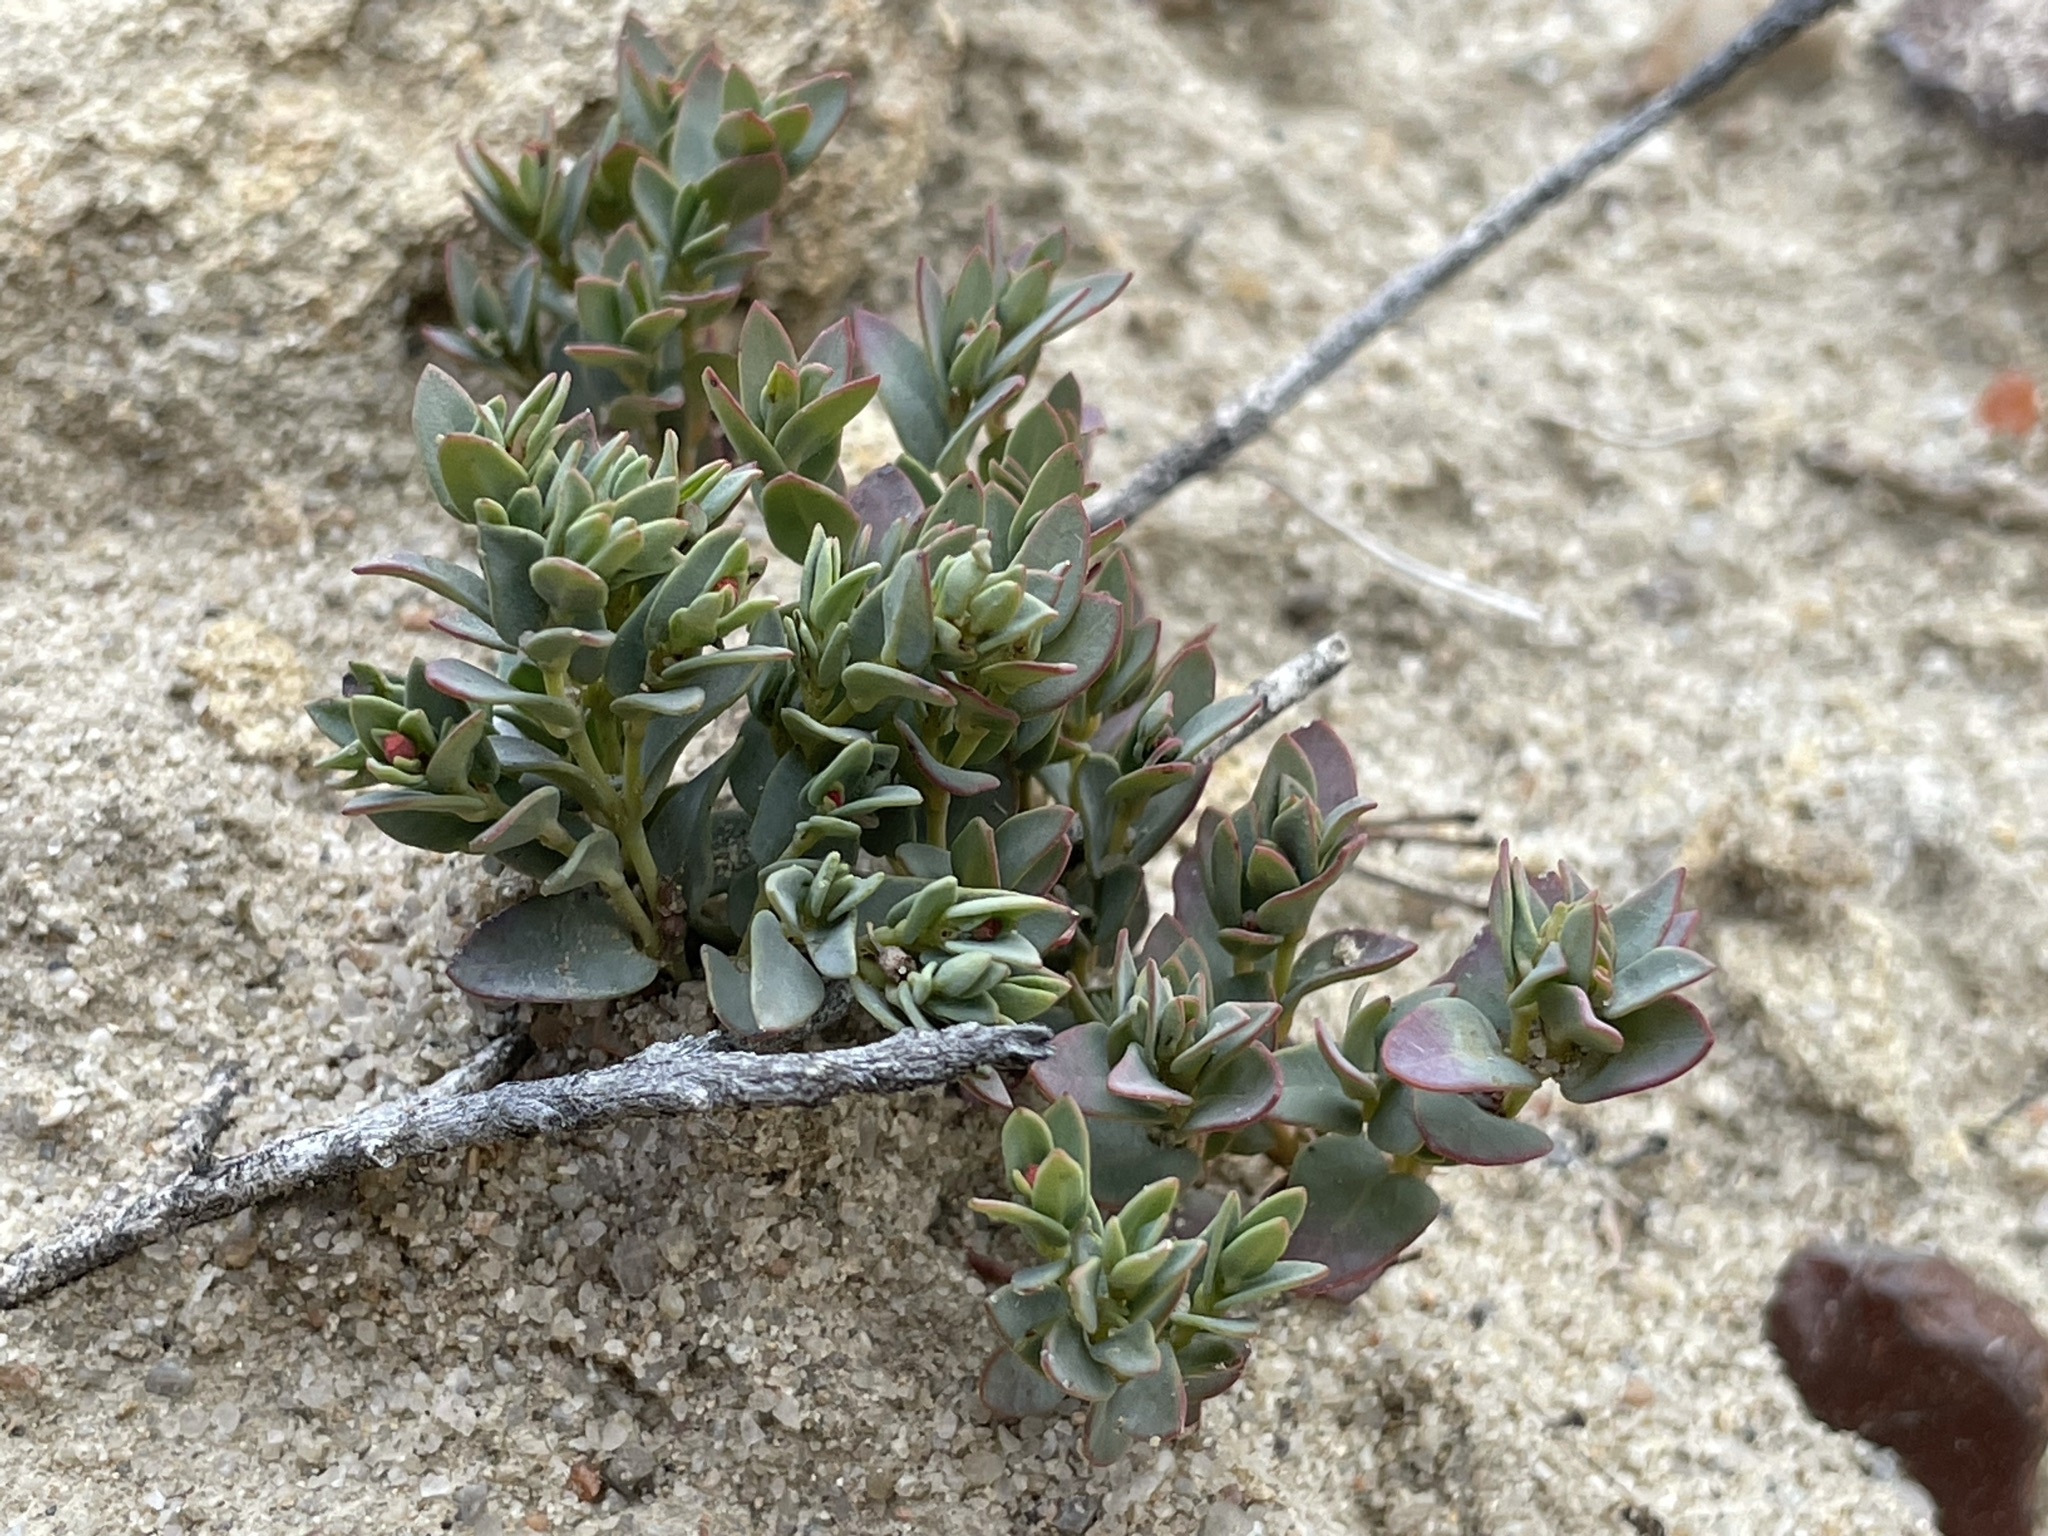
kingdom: Plantae
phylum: Tracheophyta
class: Magnoliopsida
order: Malpighiales
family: Euphorbiaceae
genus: Euphorbia
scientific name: Euphorbia fendleri
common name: Fendler's euphorbia
